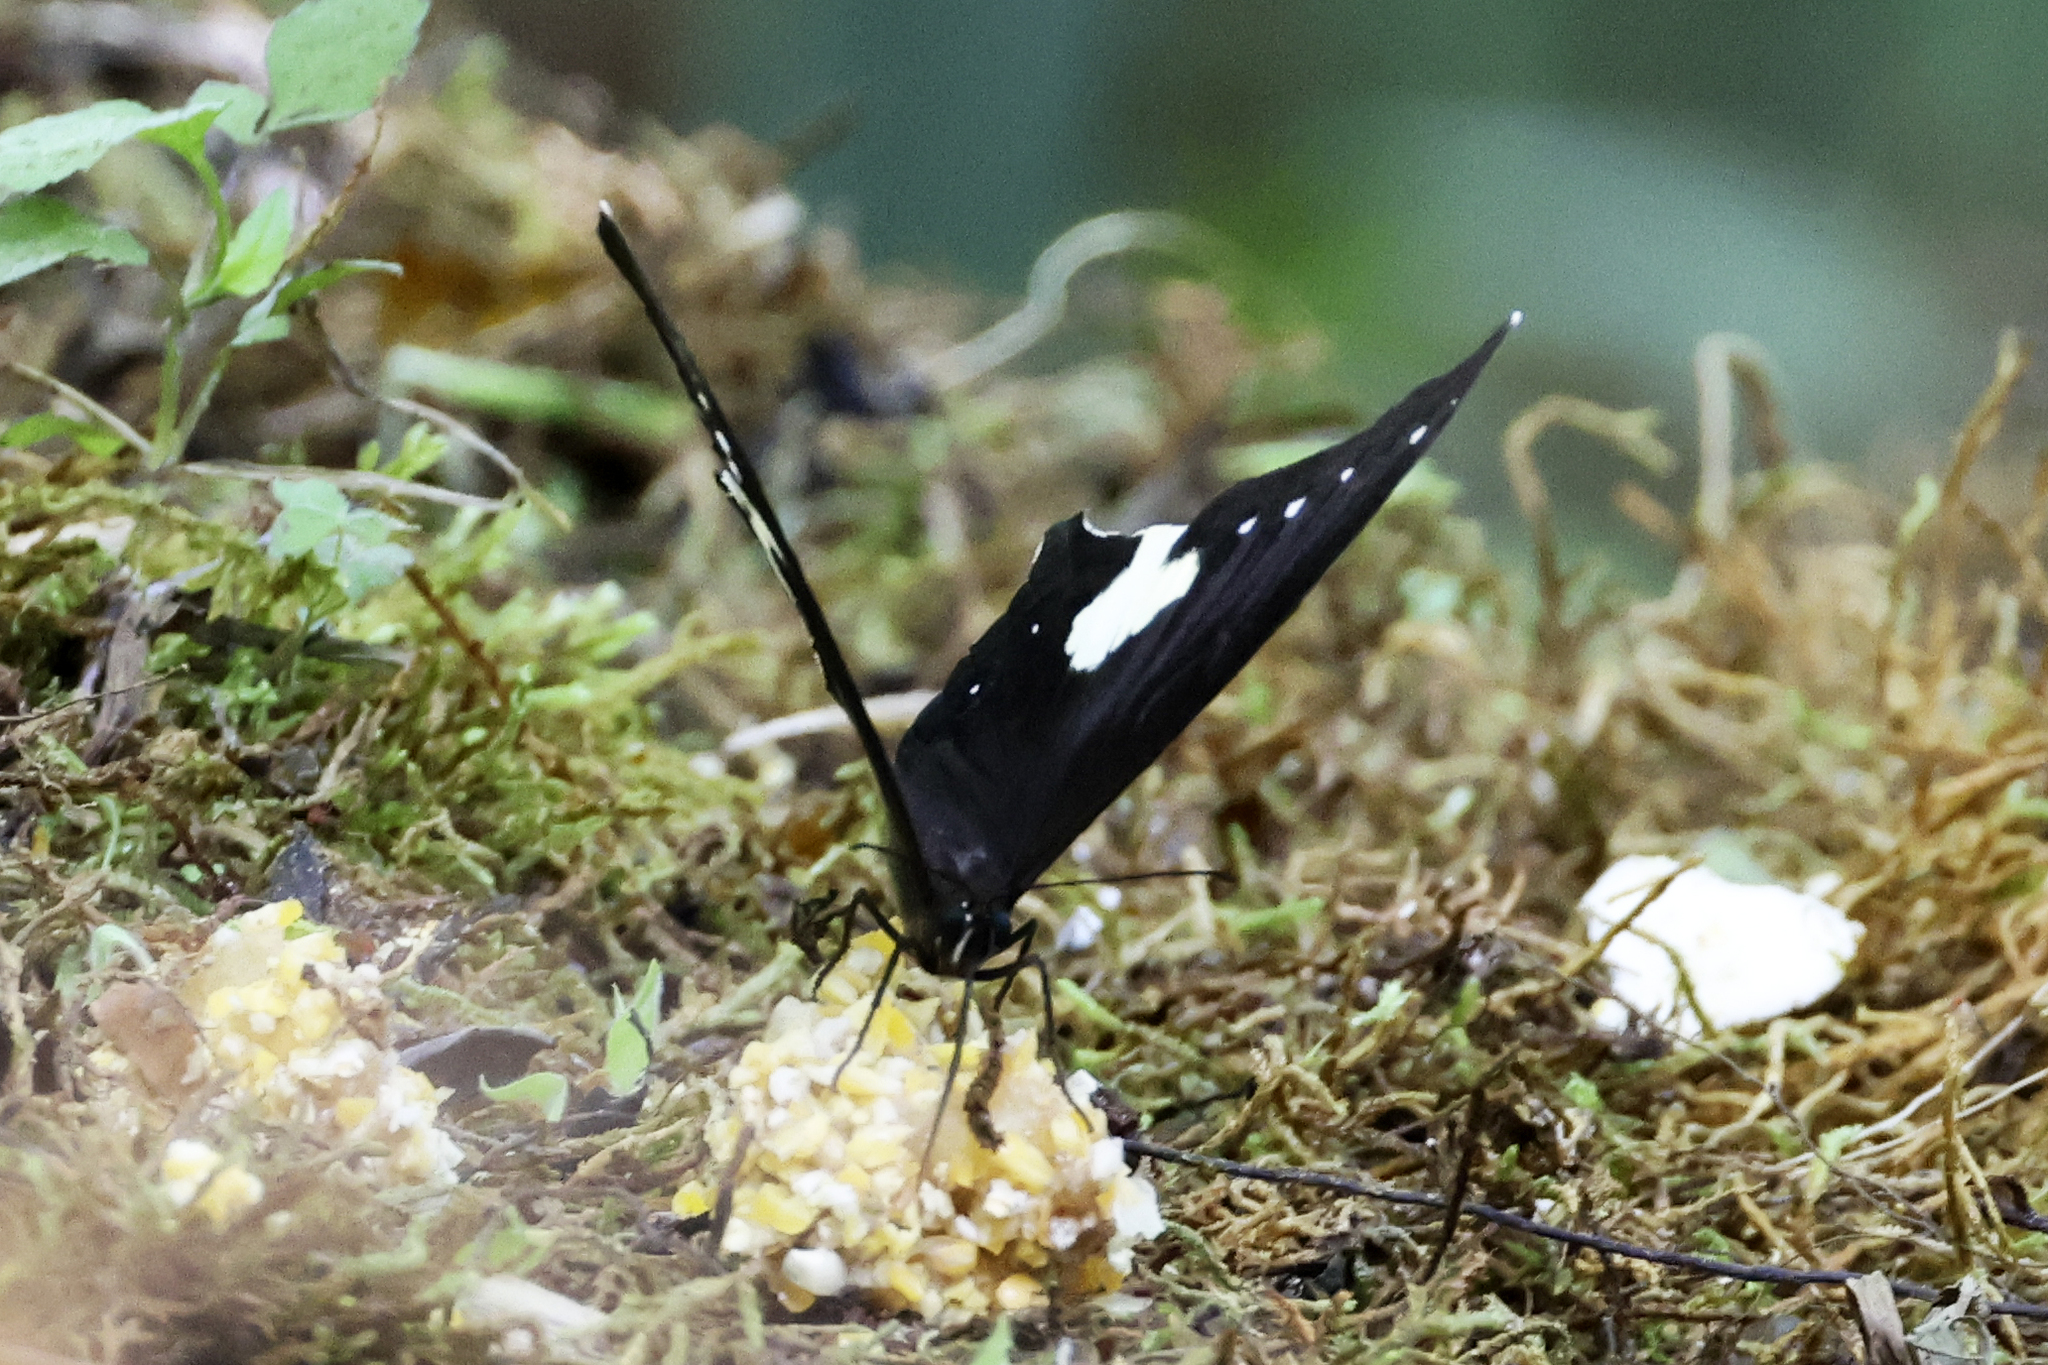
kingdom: Animalia
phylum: Arthropoda
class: Insecta
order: Lepidoptera
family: Nymphalidae
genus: Neorina
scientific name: Neorina lowii
